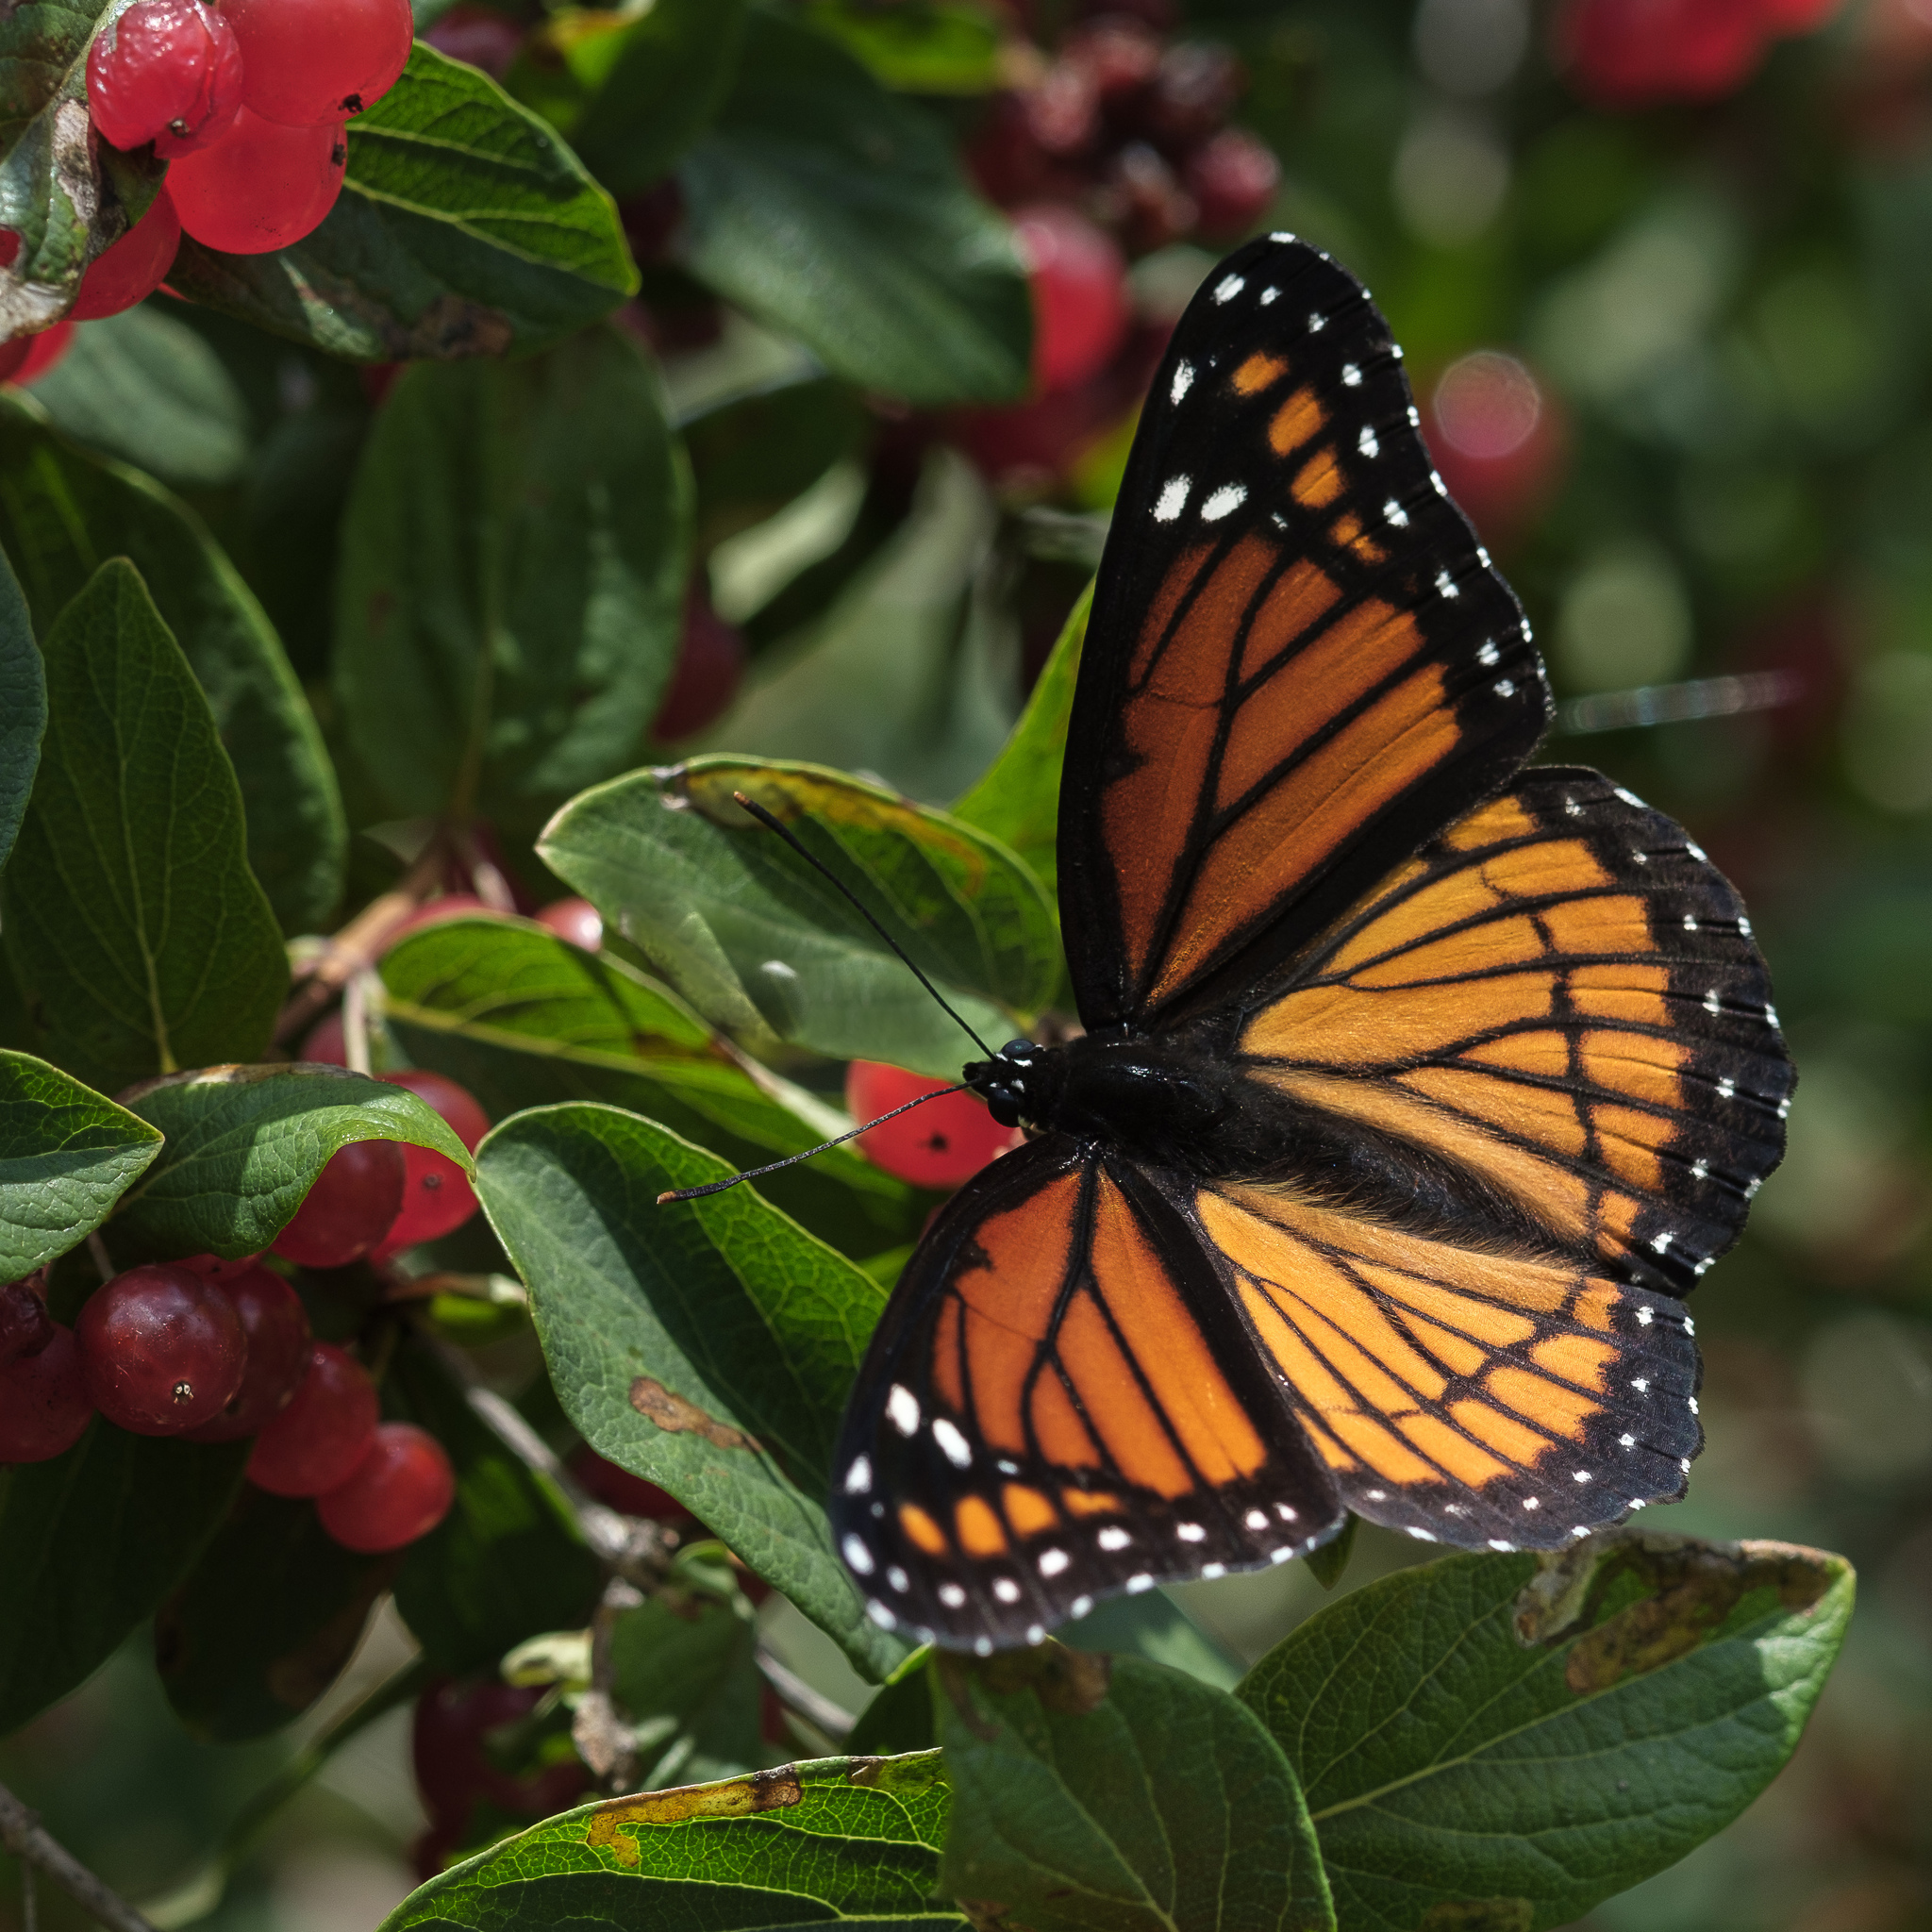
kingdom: Animalia
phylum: Arthropoda
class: Insecta
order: Lepidoptera
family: Nymphalidae
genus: Limenitis
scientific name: Limenitis archippus
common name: Viceroy
